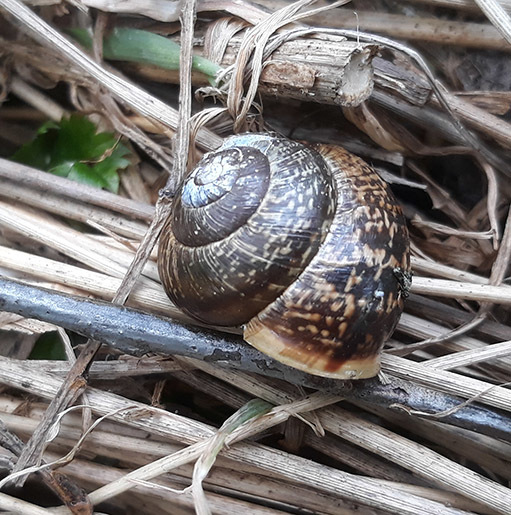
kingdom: Animalia
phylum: Mollusca
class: Gastropoda
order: Stylommatophora
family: Helicidae
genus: Arianta
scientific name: Arianta arbustorum
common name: Copse snail
